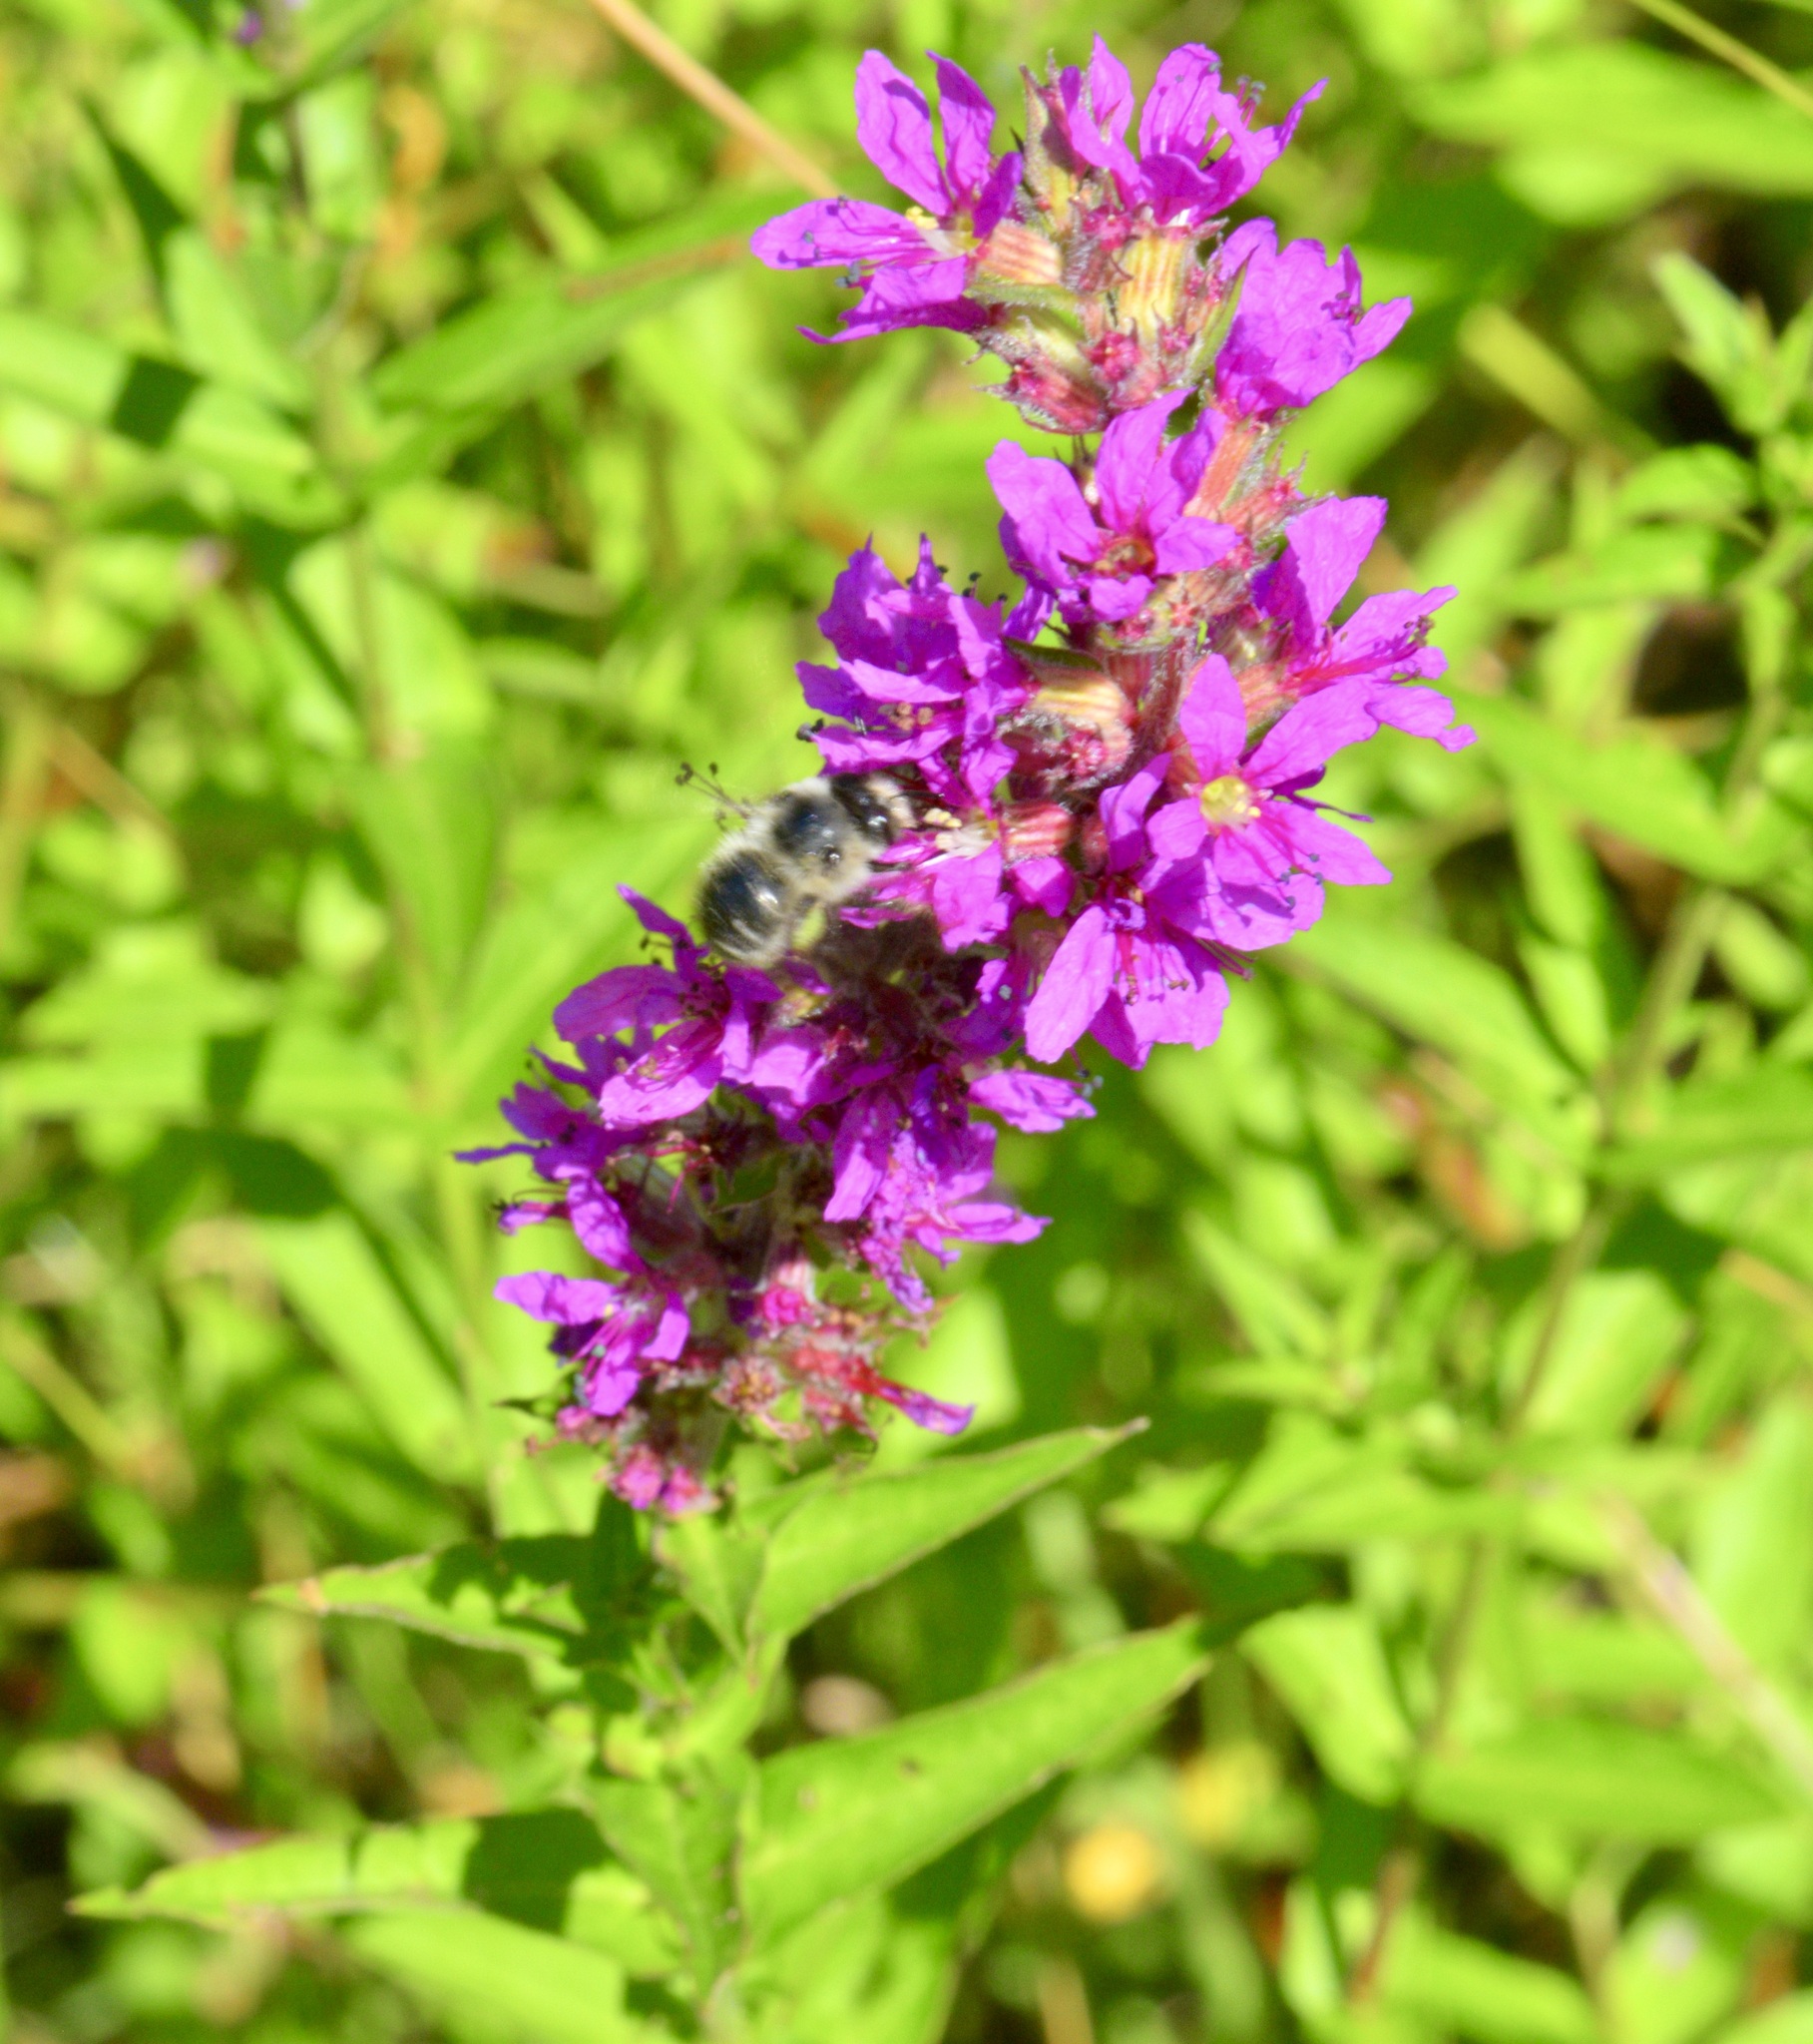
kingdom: Animalia
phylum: Arthropoda
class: Insecta
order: Hymenoptera
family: Apidae
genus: Anthophora
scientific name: Anthophora terminalis
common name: Orange-tipped wood-digger bee
